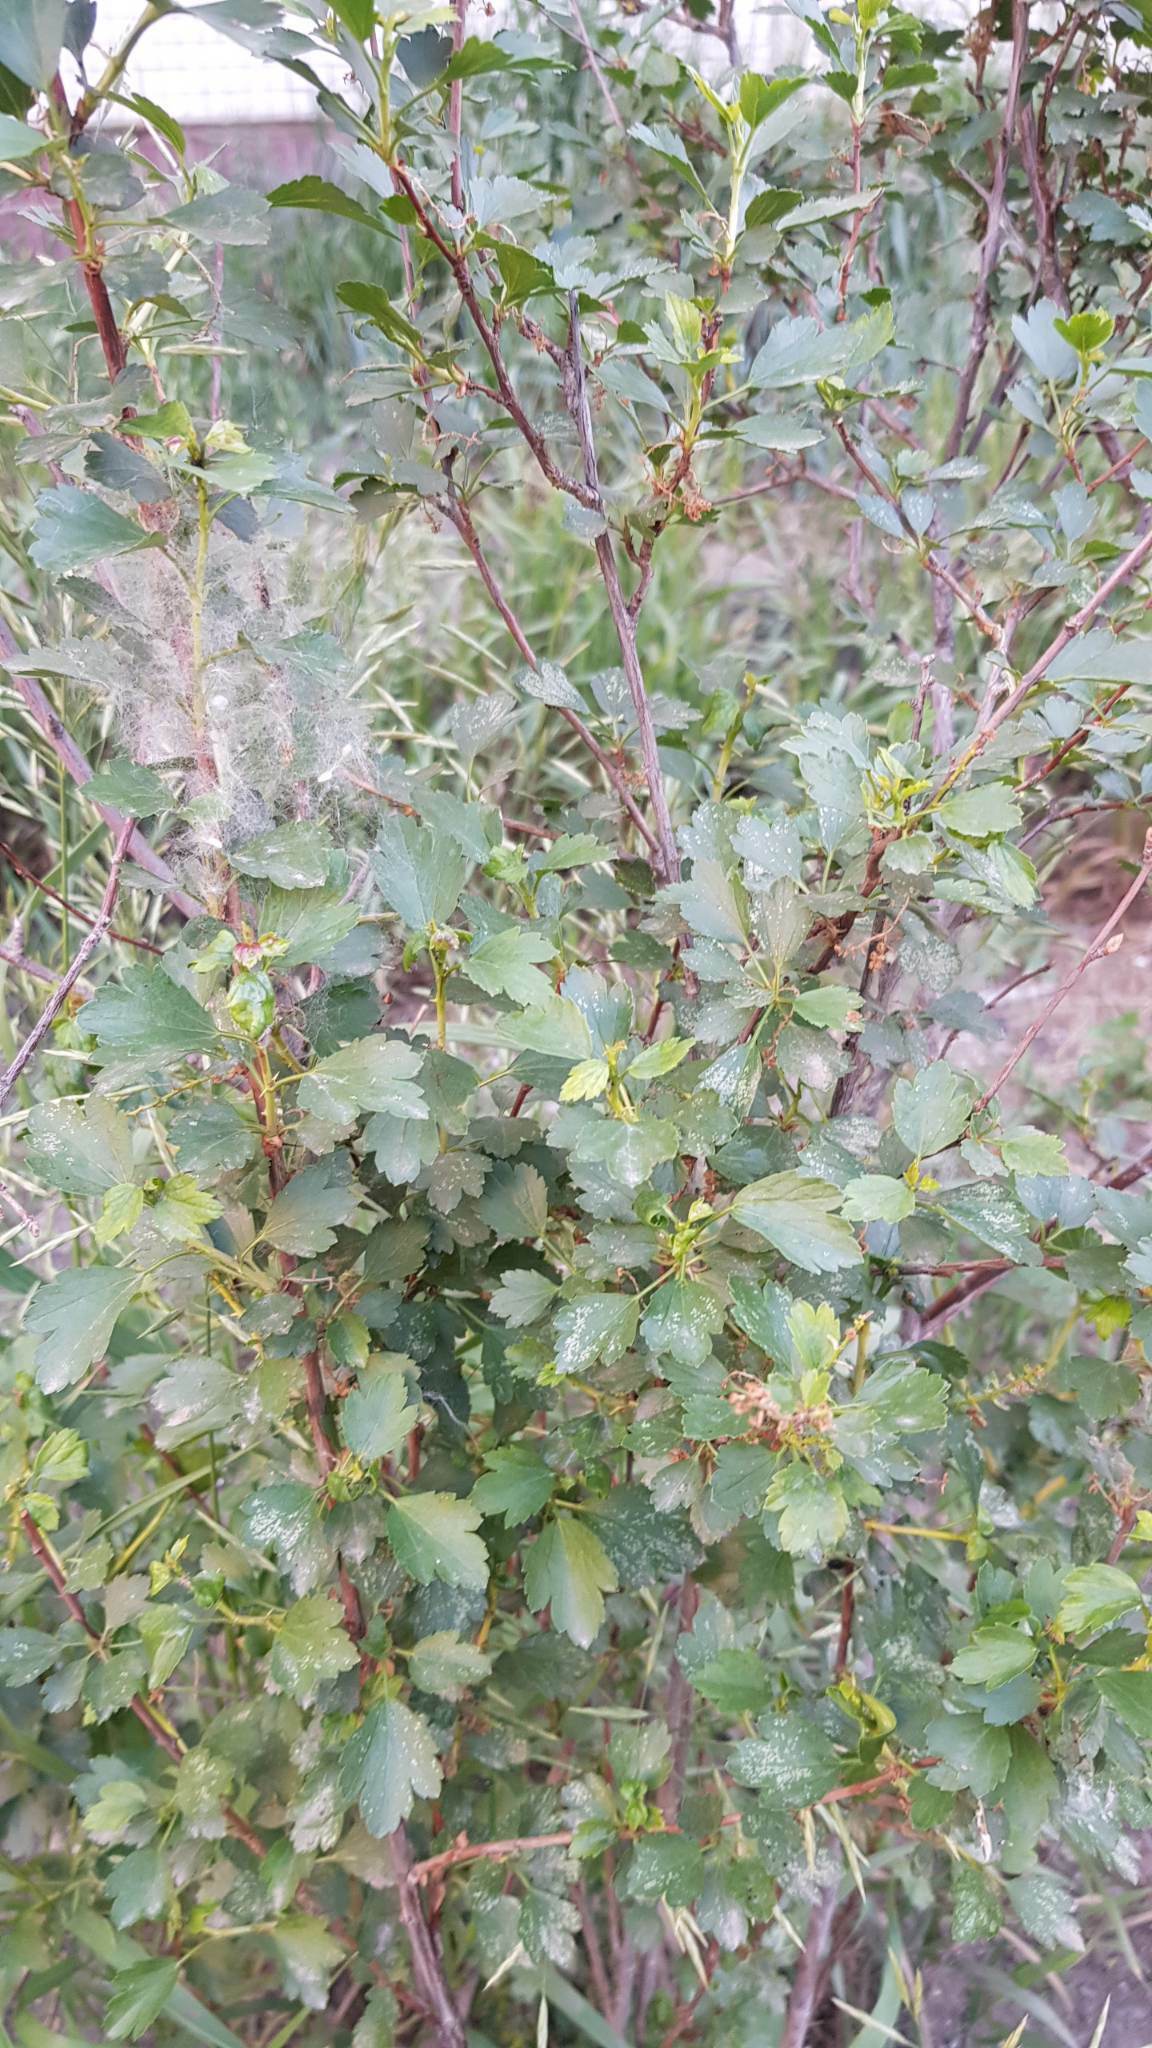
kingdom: Plantae
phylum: Tracheophyta
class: Magnoliopsida
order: Saxifragales
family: Grossulariaceae
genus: Ribes
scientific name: Ribes diacanthum
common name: Siberian currant
